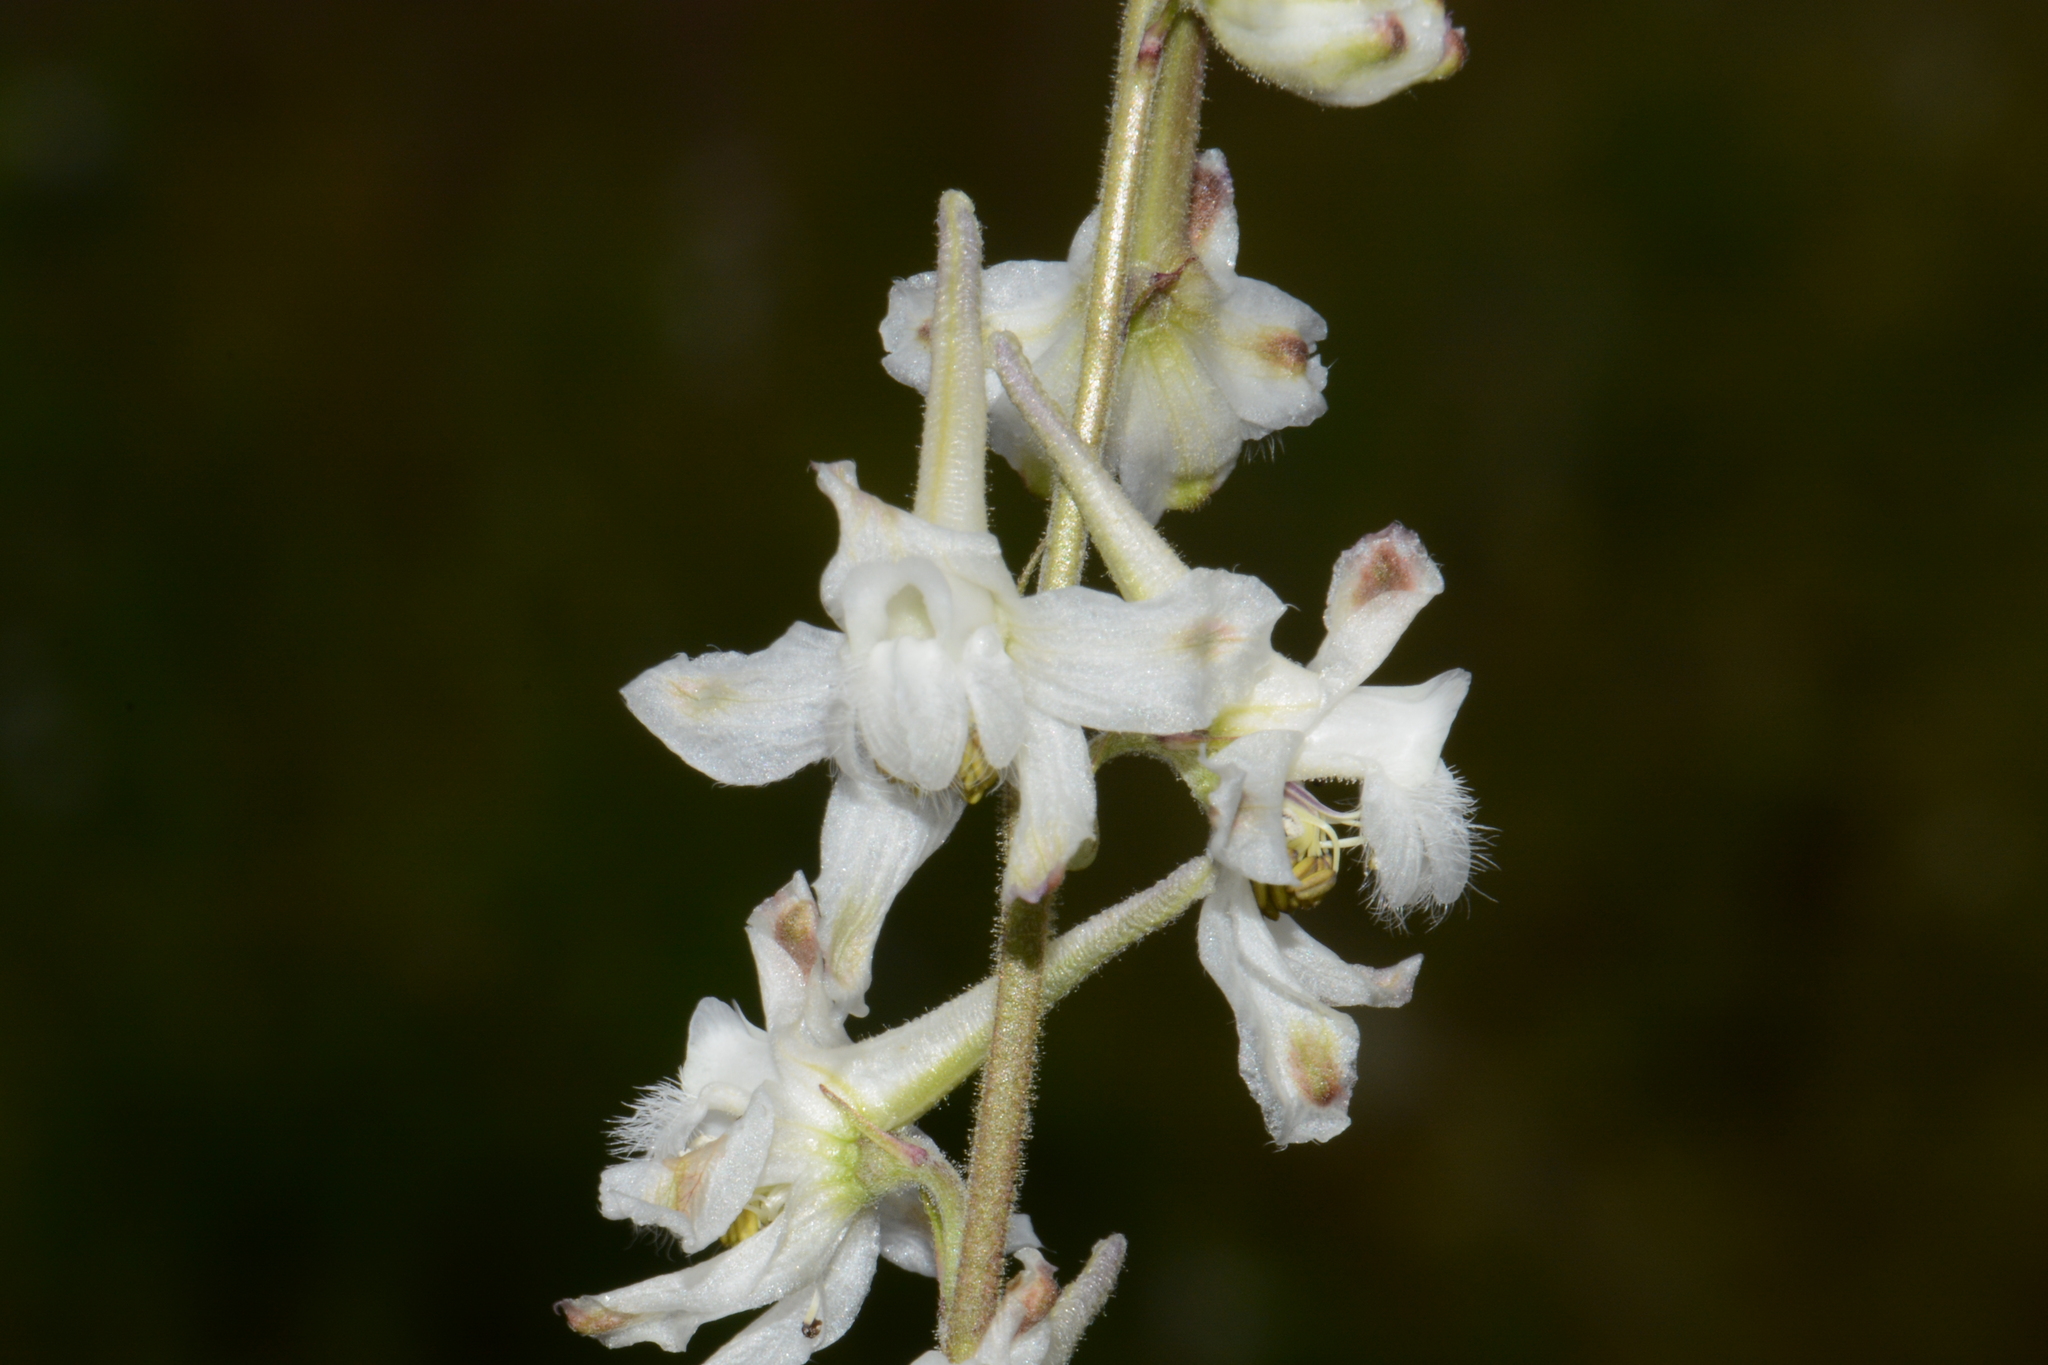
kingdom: Plantae
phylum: Tracheophyta
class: Magnoliopsida
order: Ranunculales
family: Ranunculaceae
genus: Delphinium
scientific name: Delphinium carolinianum
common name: Carolina larkspur
